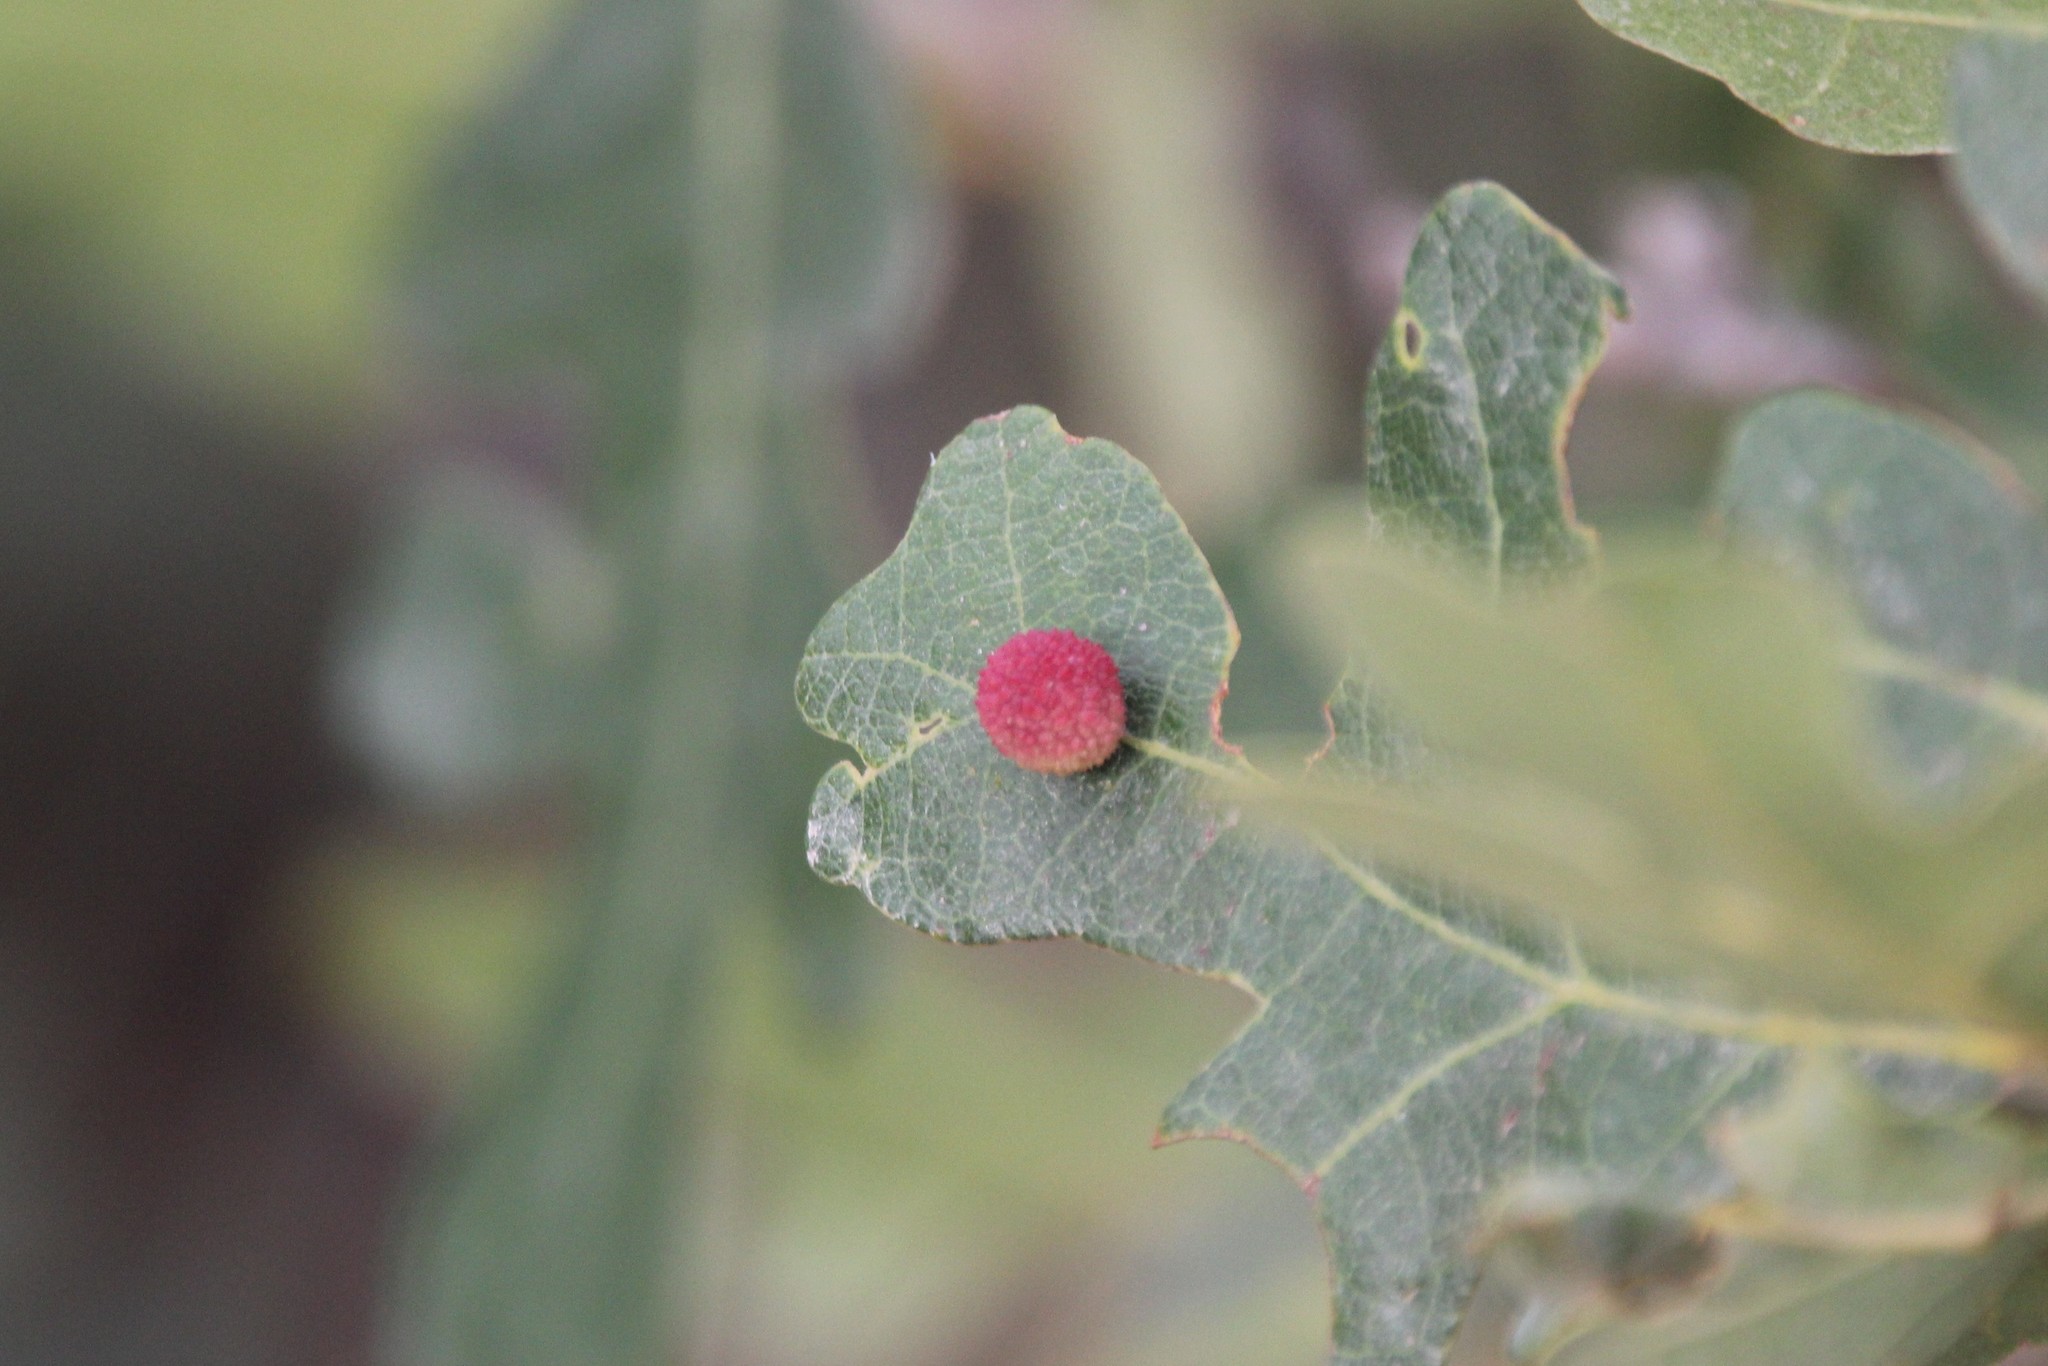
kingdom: Animalia
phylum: Arthropoda
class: Insecta
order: Hymenoptera
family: Cynipidae
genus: Acraspis
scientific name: Acraspis quercushirta
